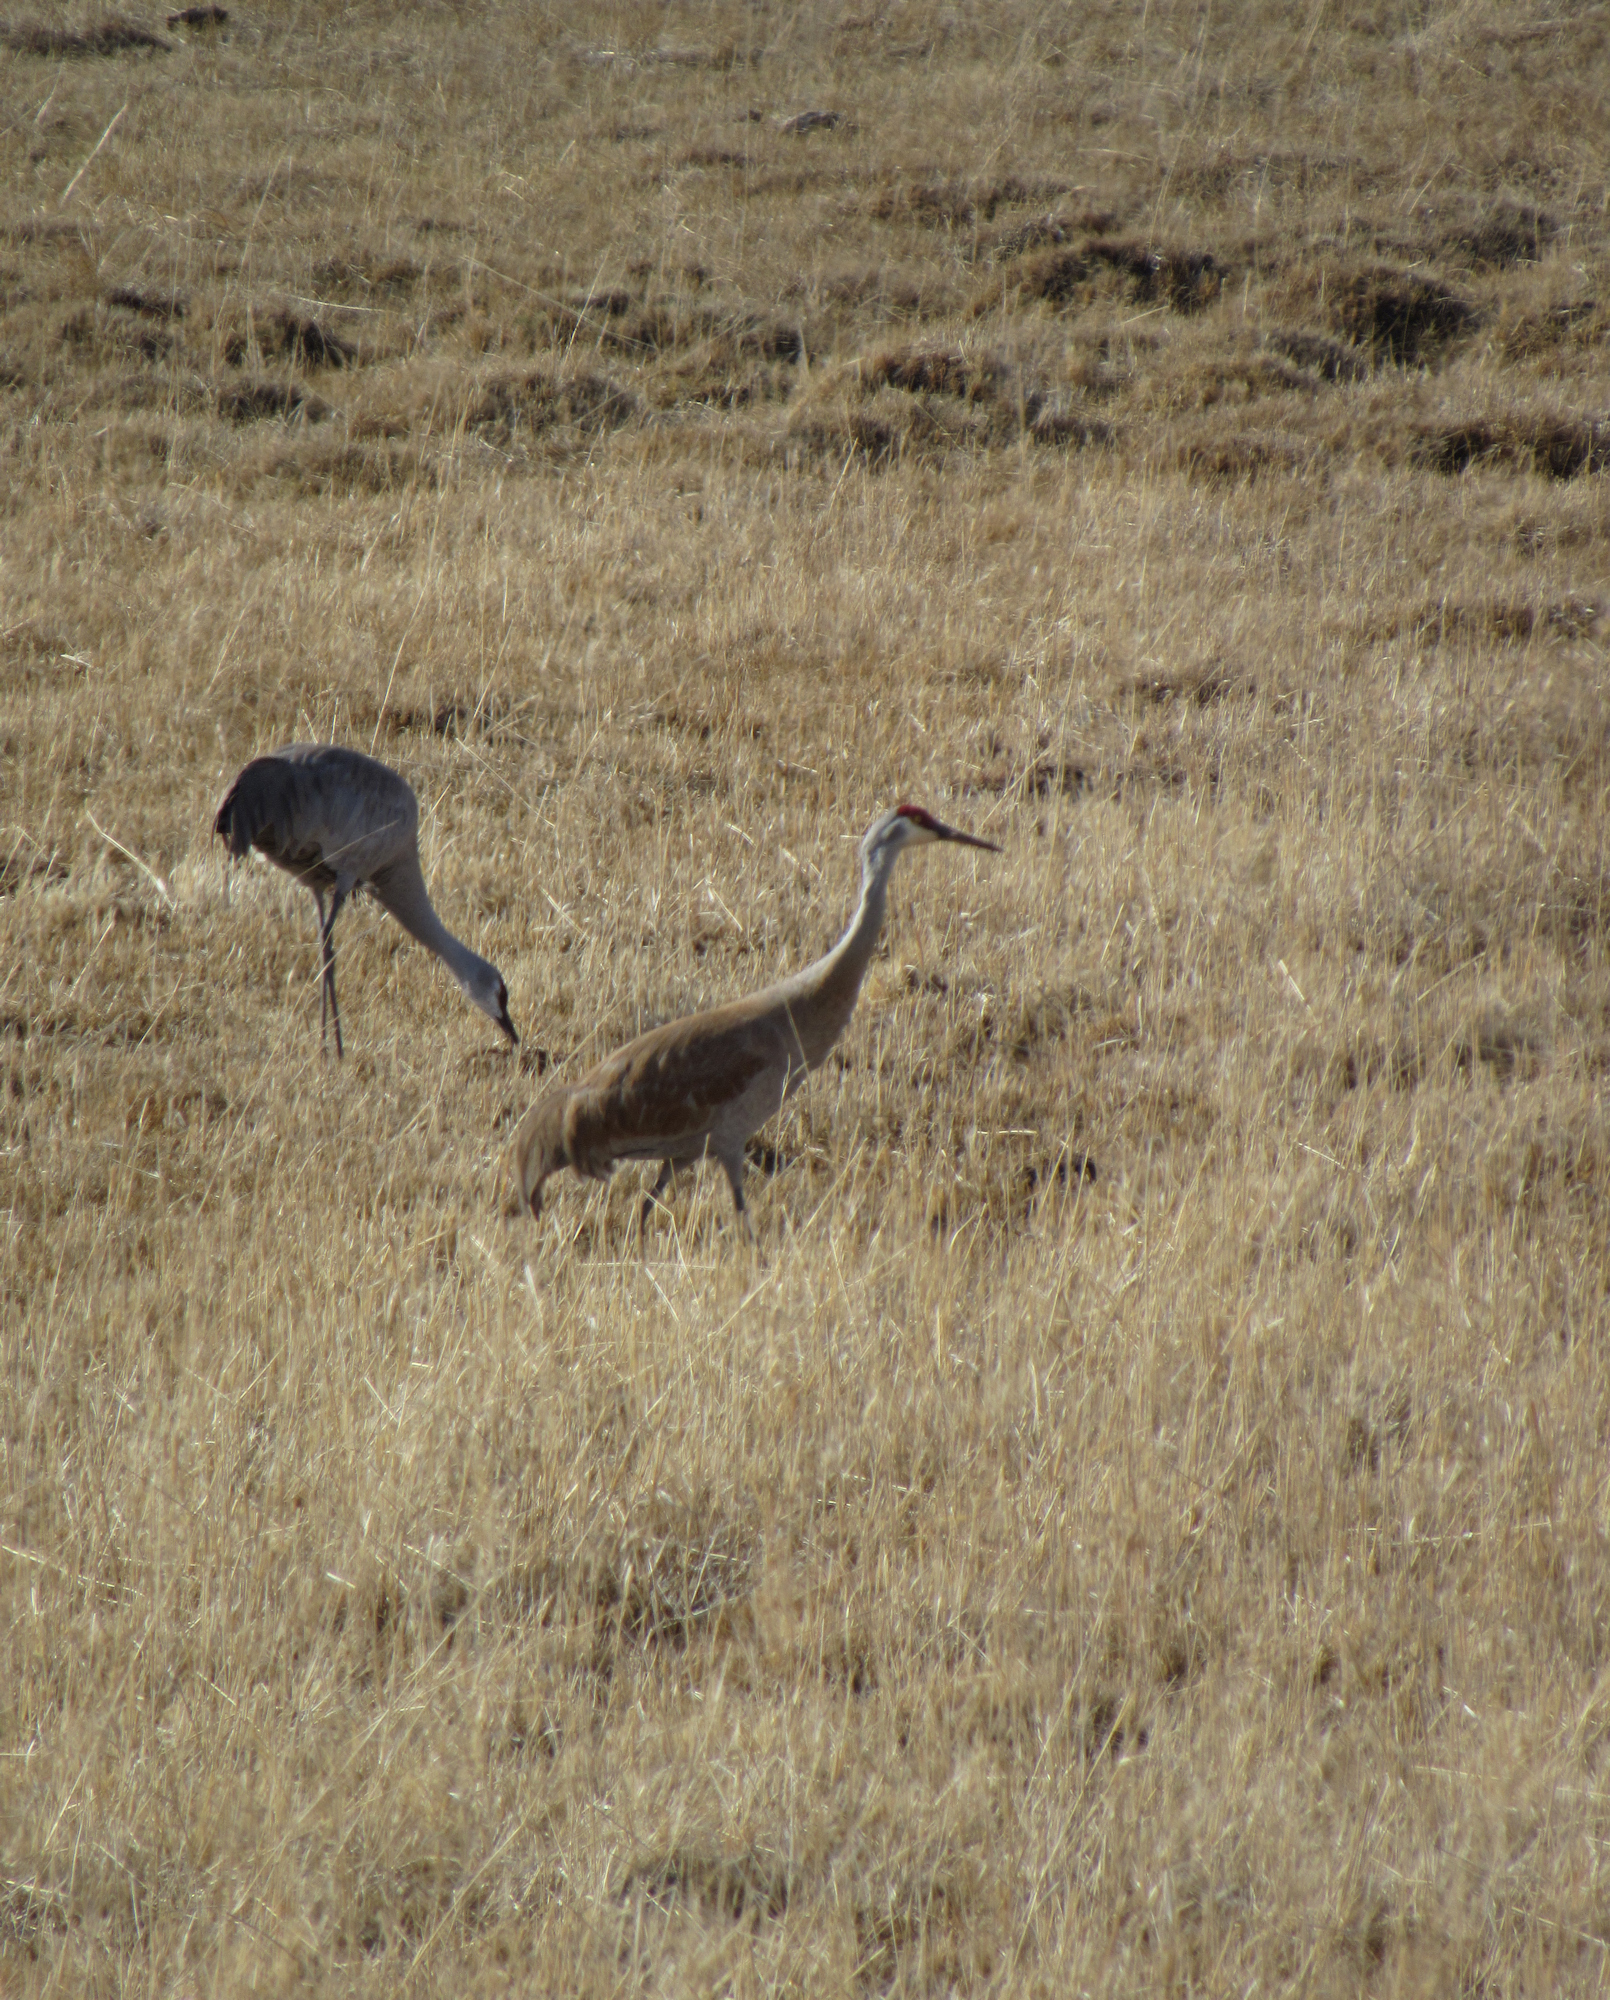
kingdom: Animalia
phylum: Chordata
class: Aves
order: Gruiformes
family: Gruidae
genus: Grus
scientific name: Grus canadensis
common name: Sandhill crane
